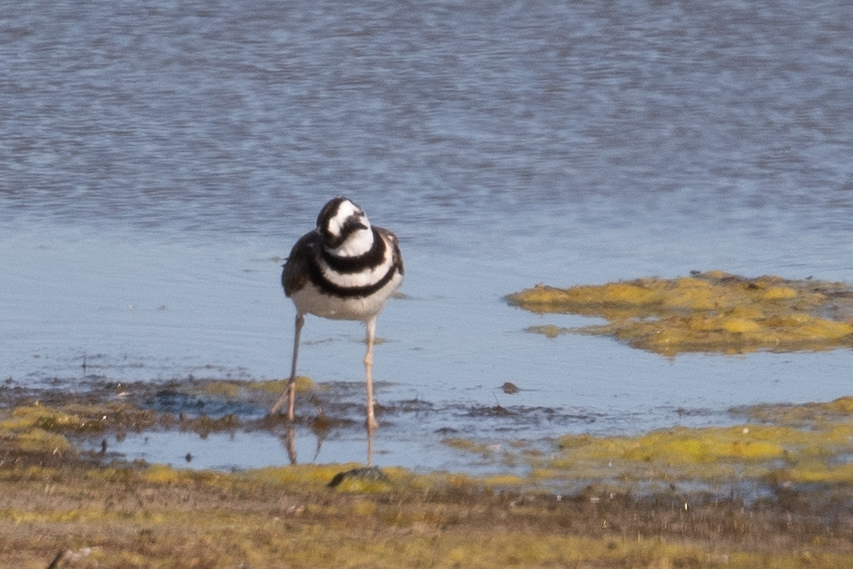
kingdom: Animalia
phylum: Chordata
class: Aves
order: Charadriiformes
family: Charadriidae
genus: Charadrius
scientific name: Charadrius vociferus
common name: Killdeer
